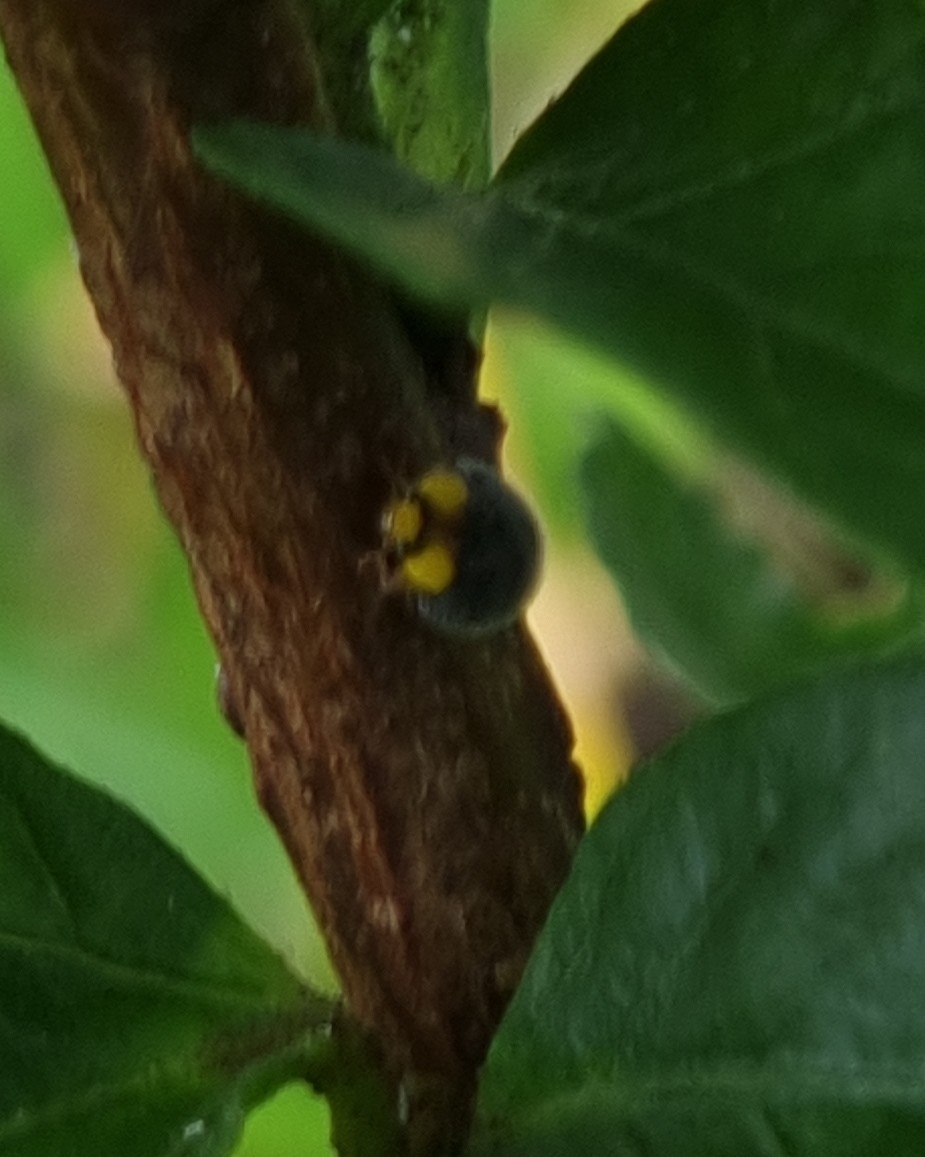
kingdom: Animalia
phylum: Arthropoda
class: Insecta
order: Coleoptera
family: Coccinellidae
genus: Scymnodes
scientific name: Scymnodes lividigaster
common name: Yellowshouldered lady beetle
